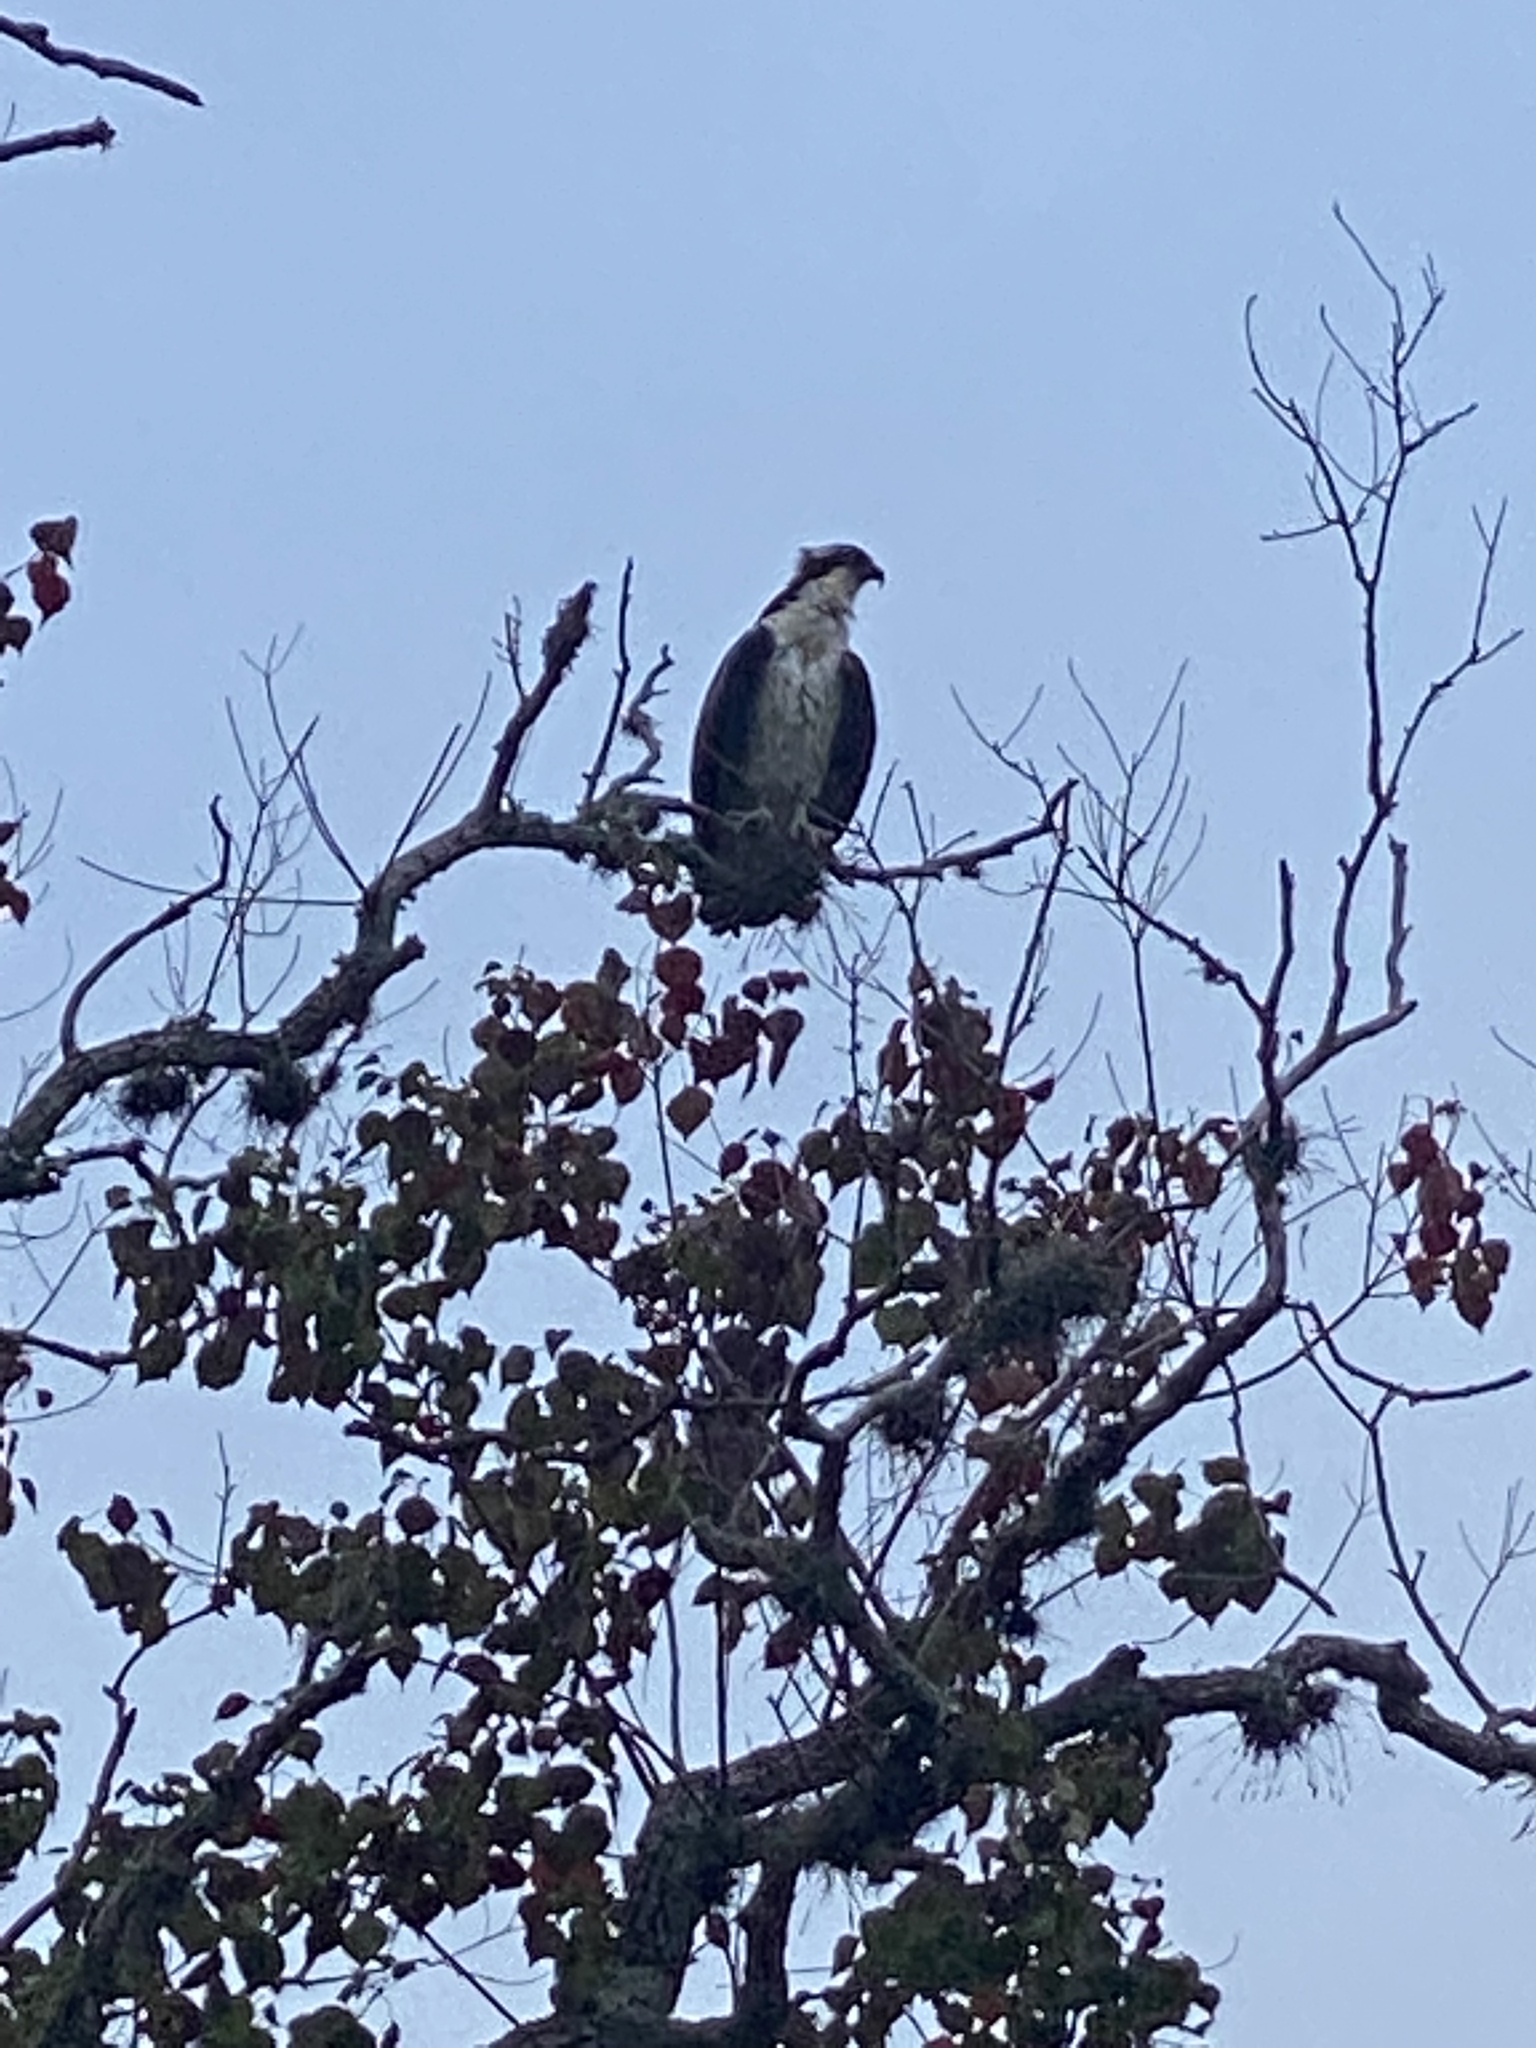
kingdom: Animalia
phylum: Chordata
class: Aves
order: Accipitriformes
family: Pandionidae
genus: Pandion
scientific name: Pandion haliaetus
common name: Osprey
